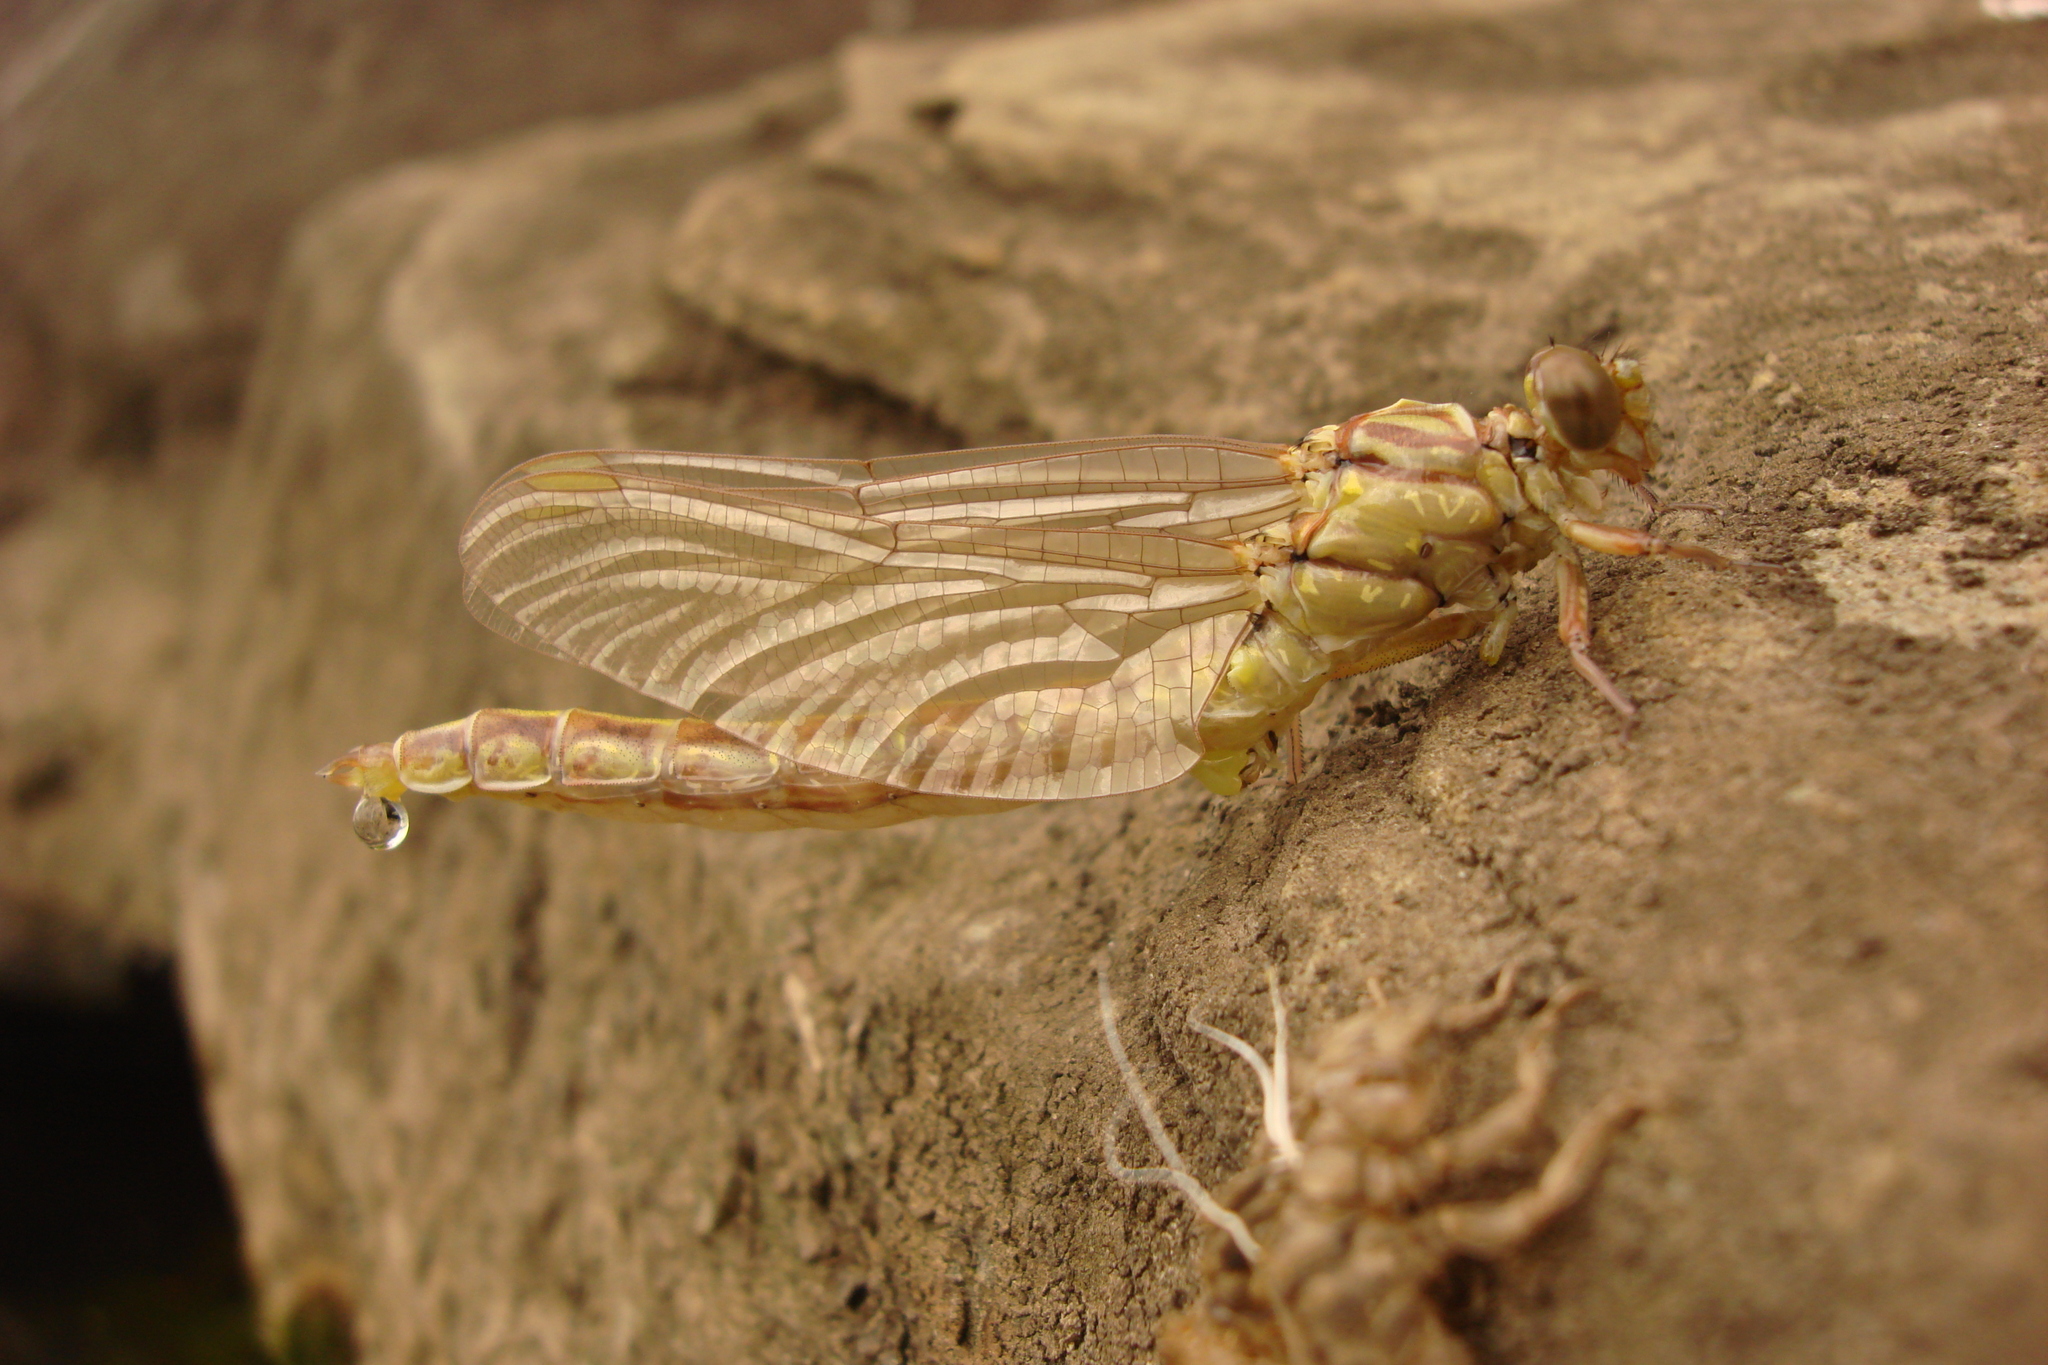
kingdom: Animalia
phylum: Arthropoda
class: Insecta
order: Odonata
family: Gomphidae
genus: Stylurus
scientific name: Stylurus flavipes
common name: River clubtail
